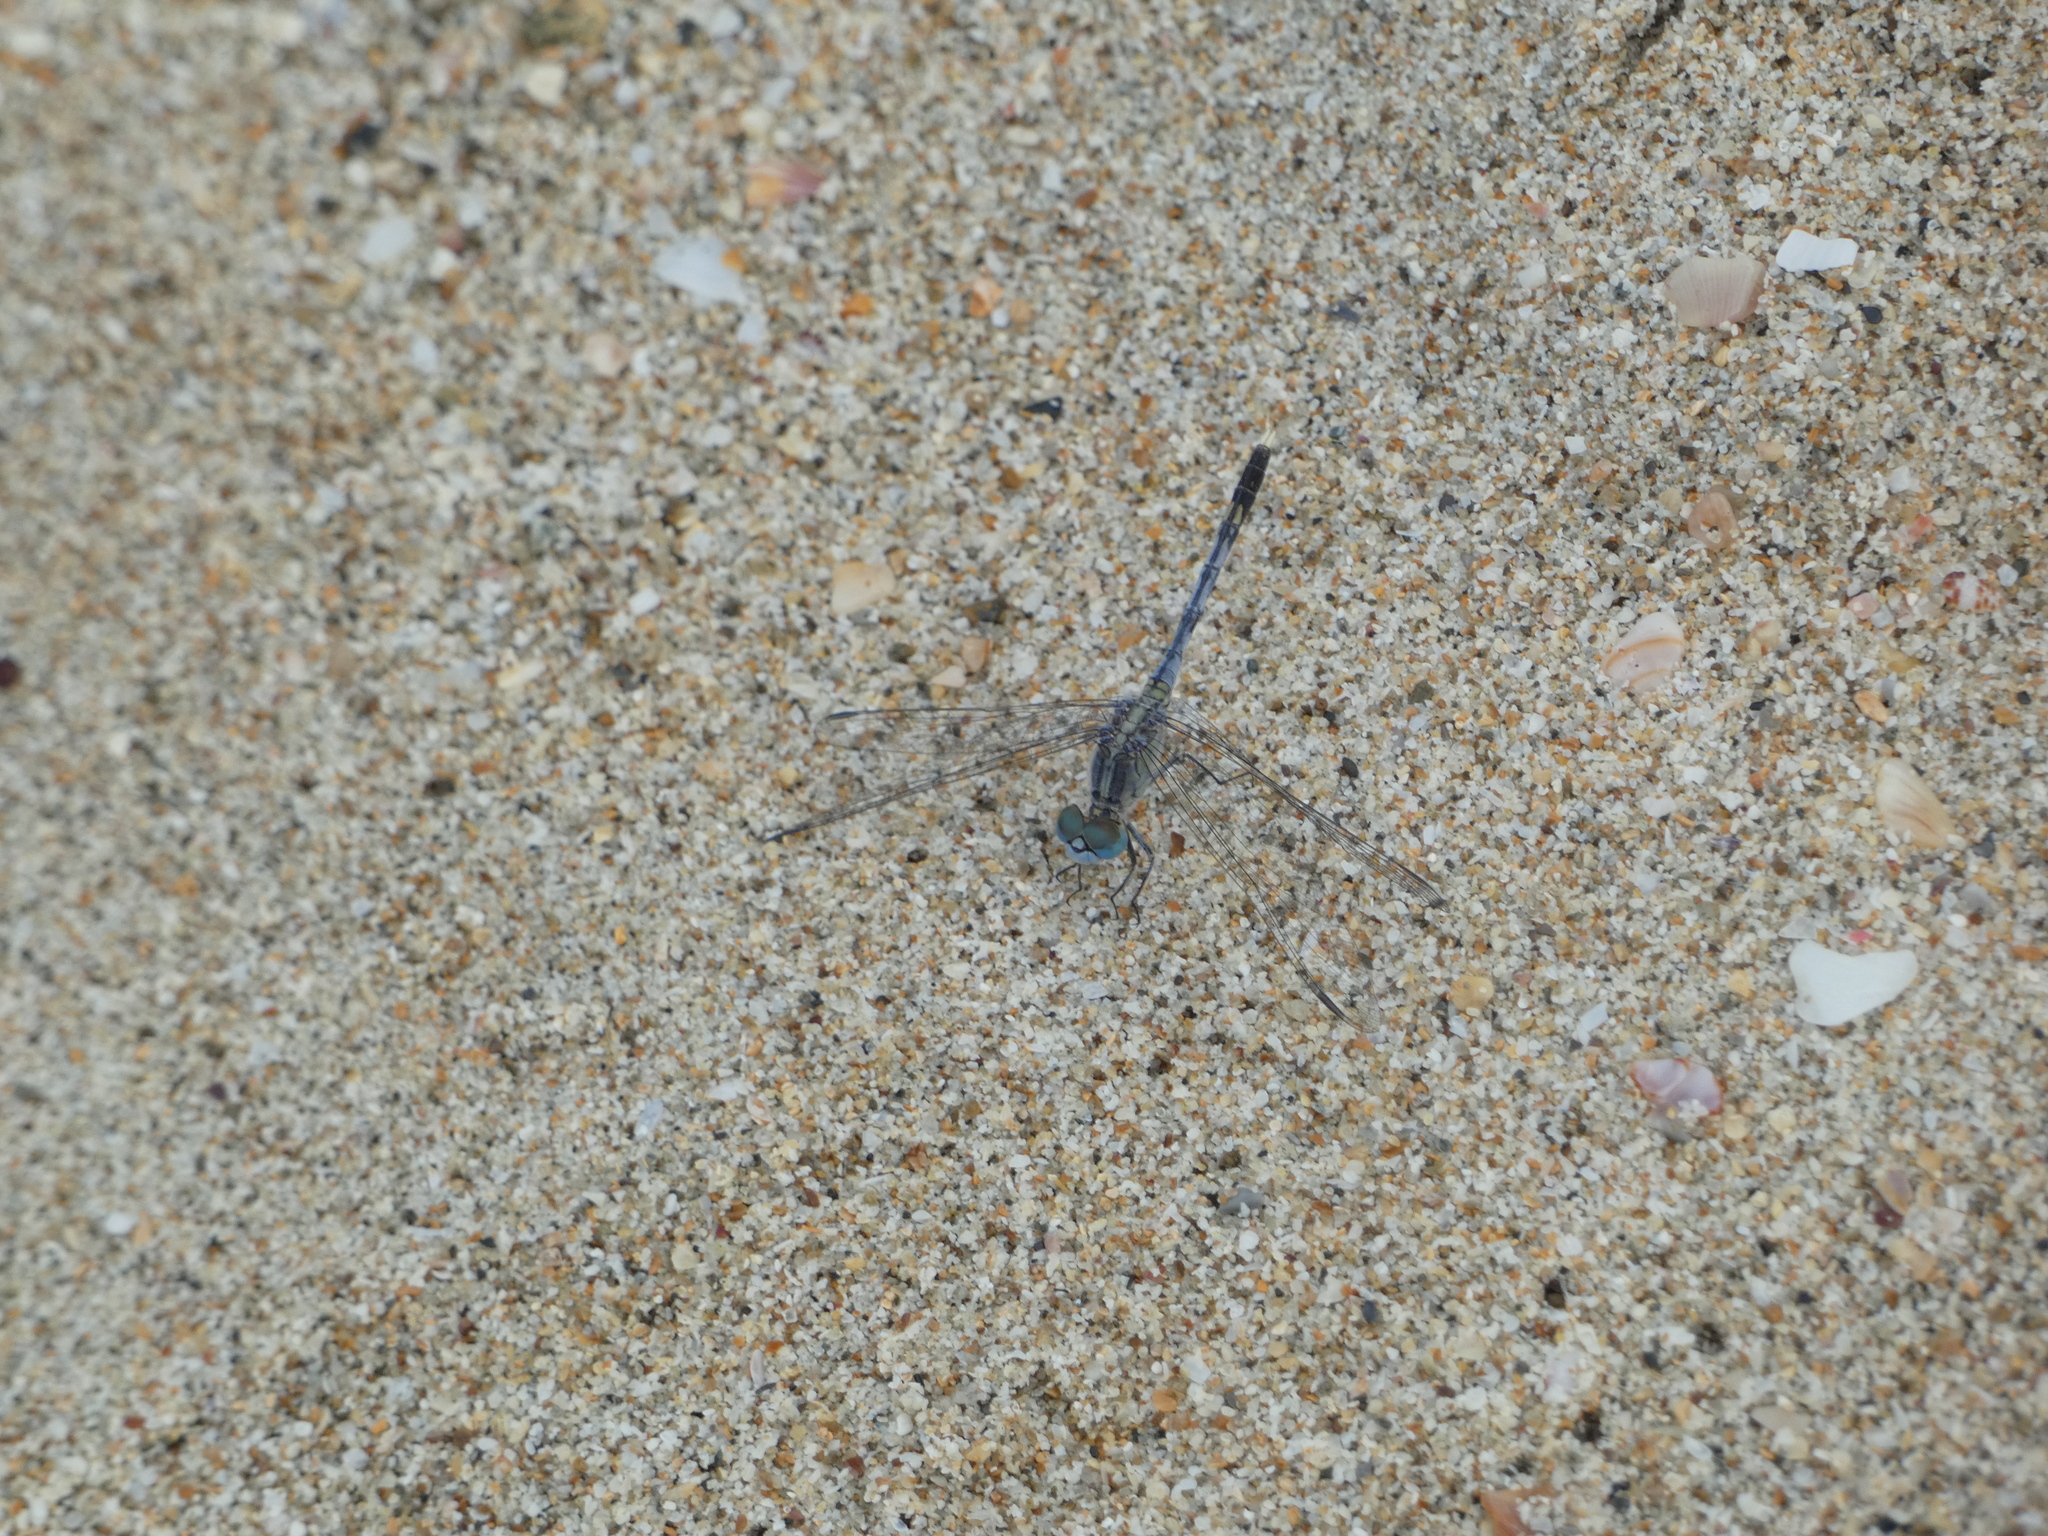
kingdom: Animalia
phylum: Arthropoda
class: Insecta
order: Odonata
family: Libellulidae
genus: Diplacodes
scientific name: Diplacodes trivialis
